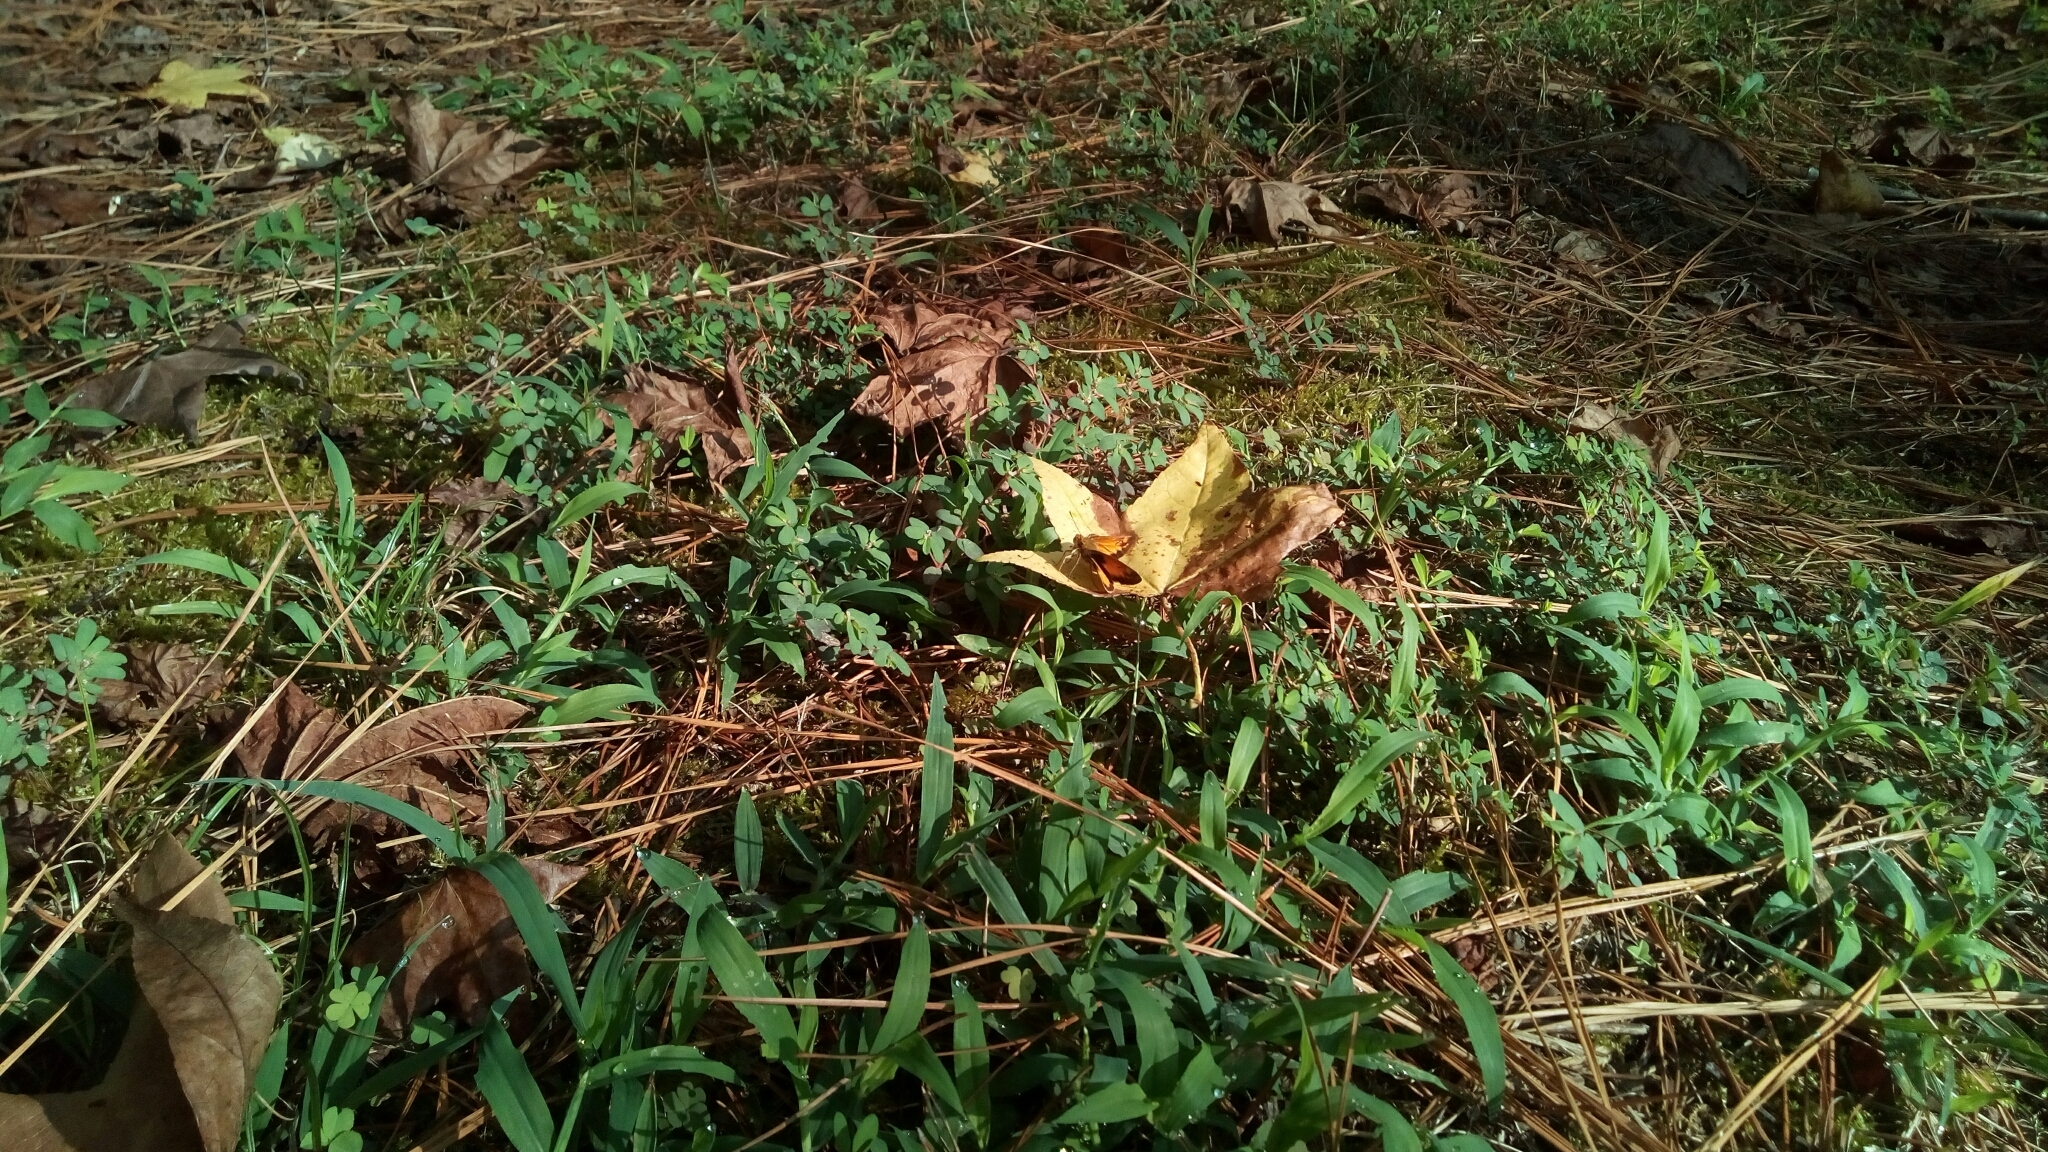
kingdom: Animalia
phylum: Arthropoda
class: Insecta
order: Lepidoptera
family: Hesperiidae
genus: Lon
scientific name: Lon zabulon
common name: Zabulon skipper
